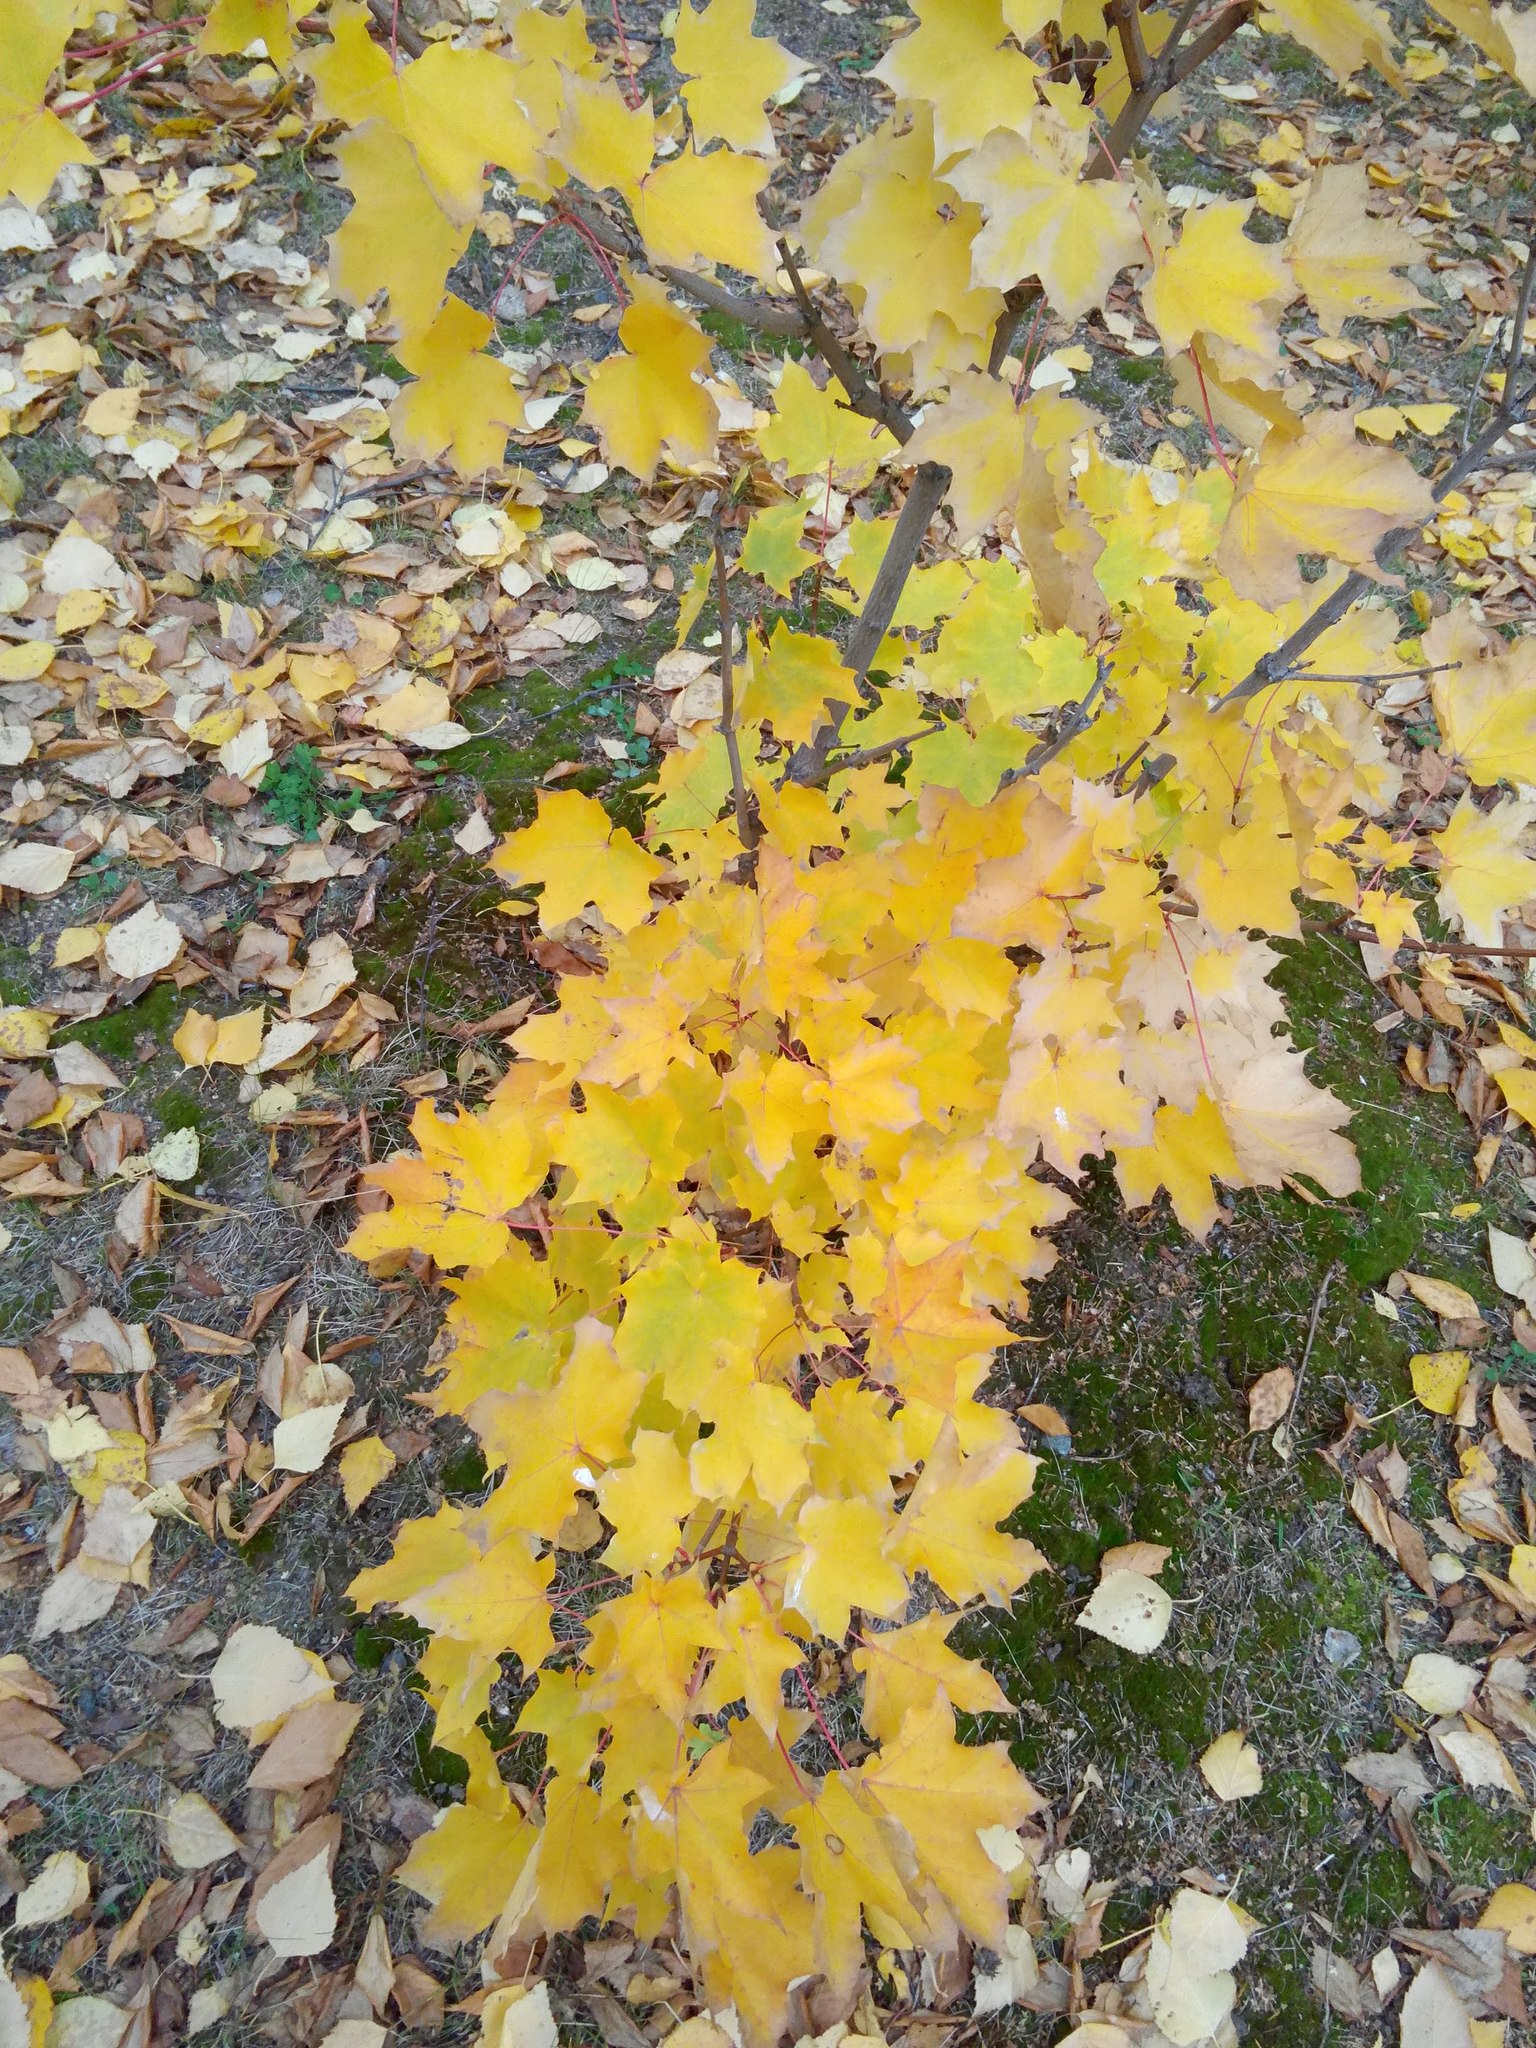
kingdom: Plantae
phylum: Tracheophyta
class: Magnoliopsida
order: Sapindales
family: Sapindaceae
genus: Acer
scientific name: Acer platanoides
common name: Norway maple
